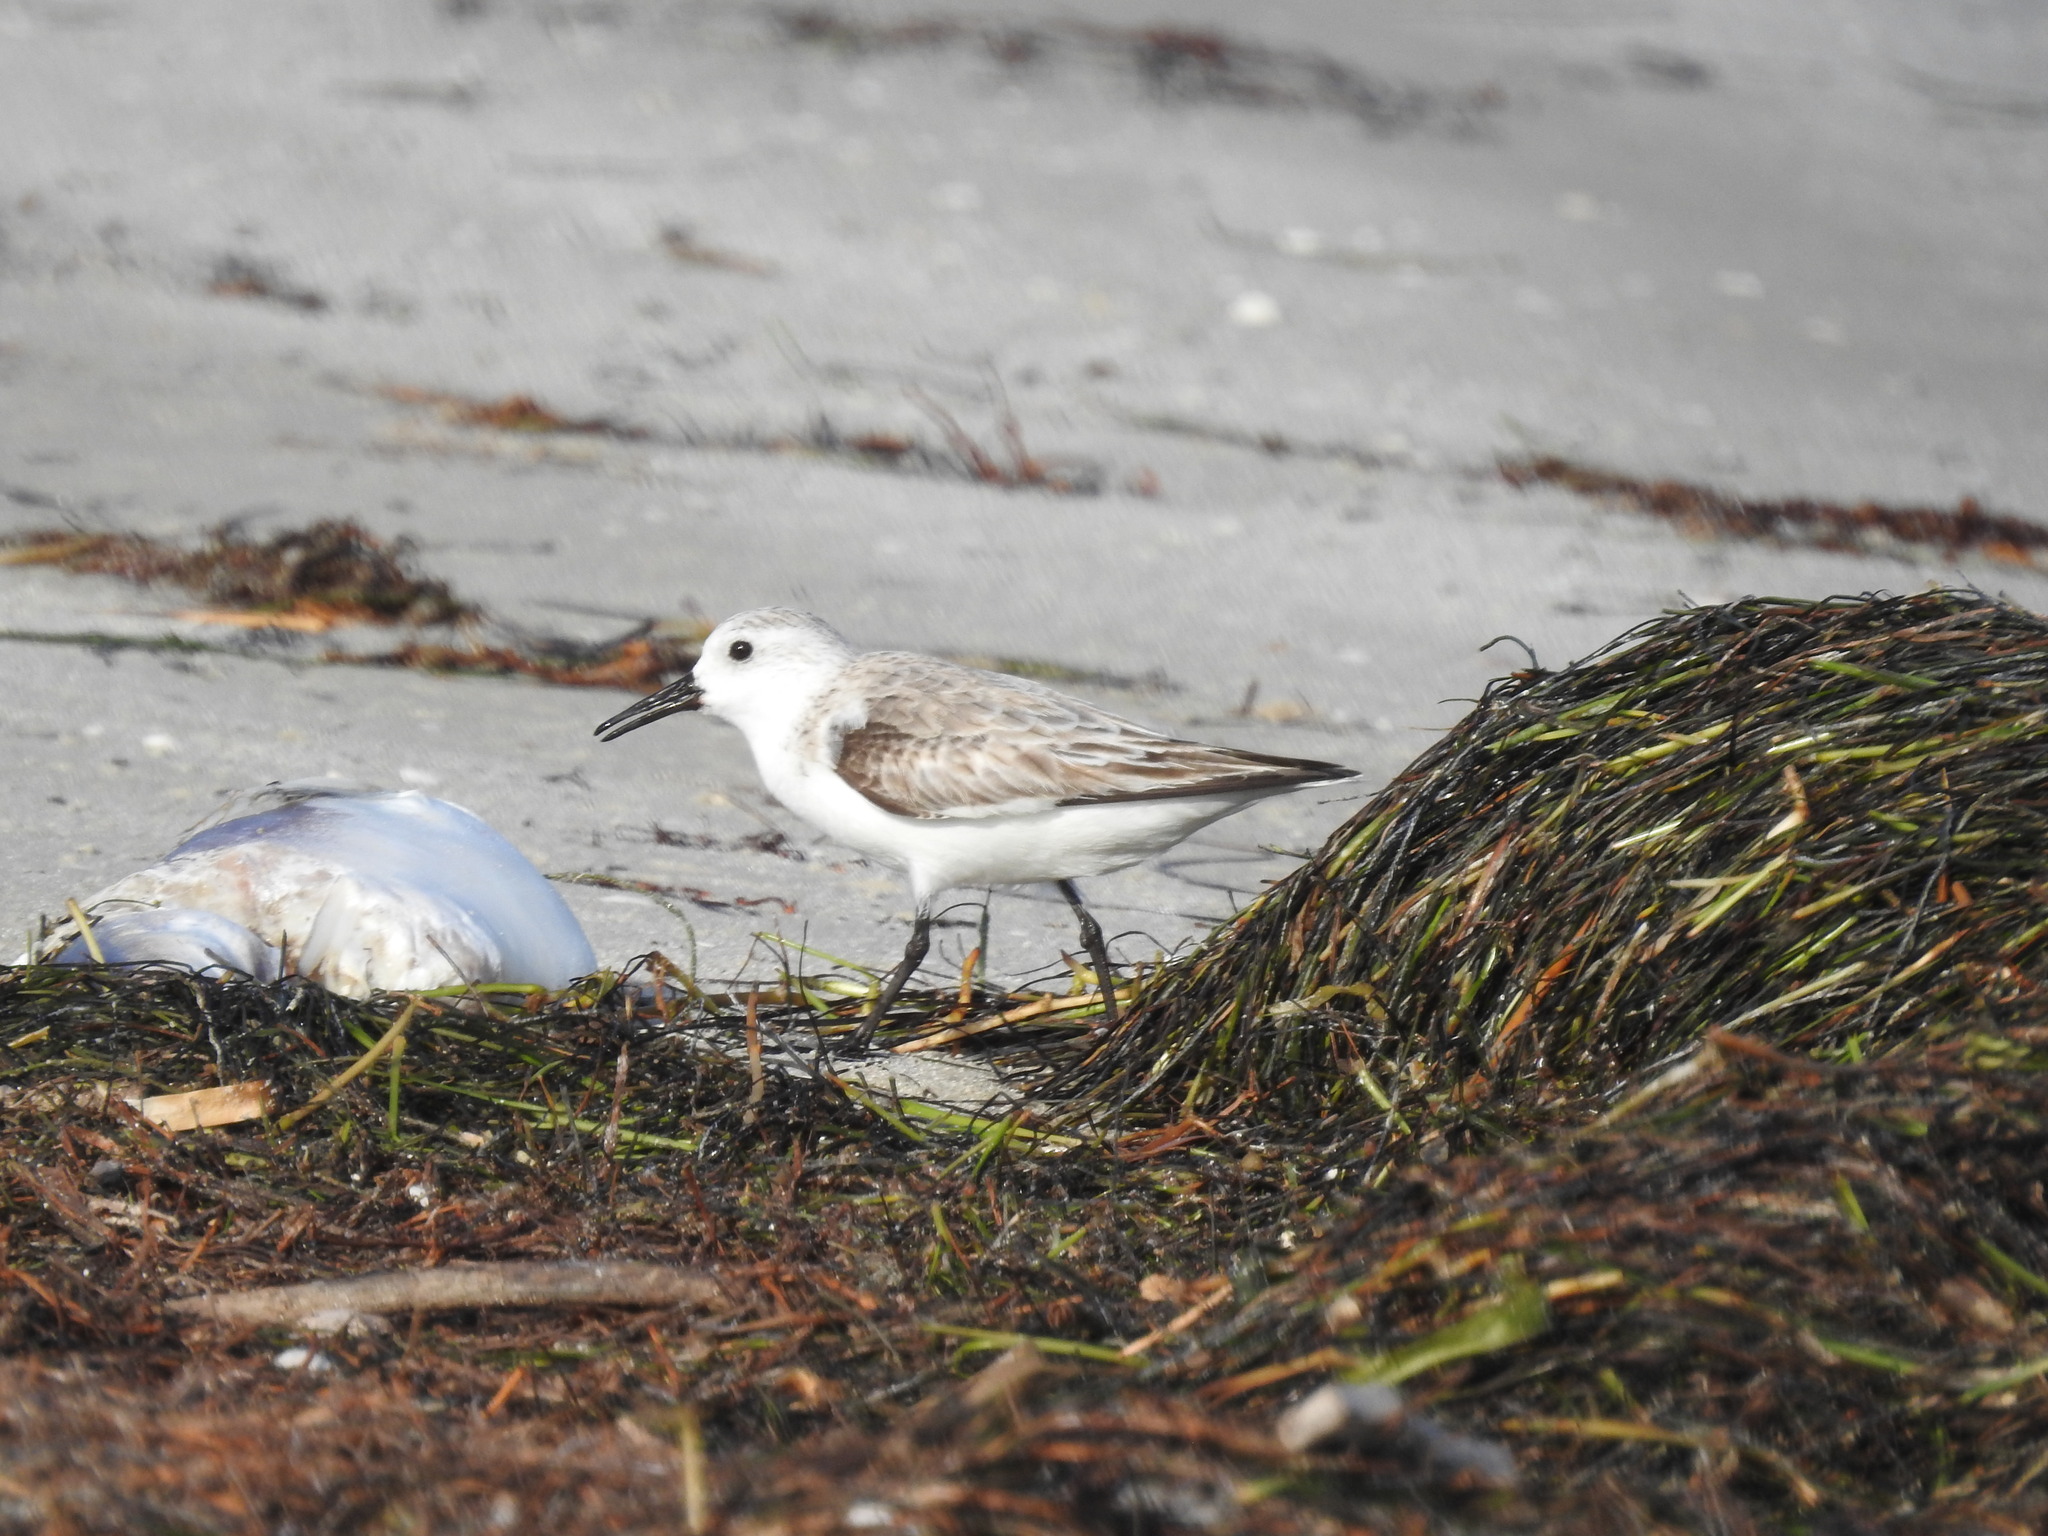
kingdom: Animalia
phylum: Chordata
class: Aves
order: Charadriiformes
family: Scolopacidae
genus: Calidris
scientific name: Calidris alba
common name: Sanderling
